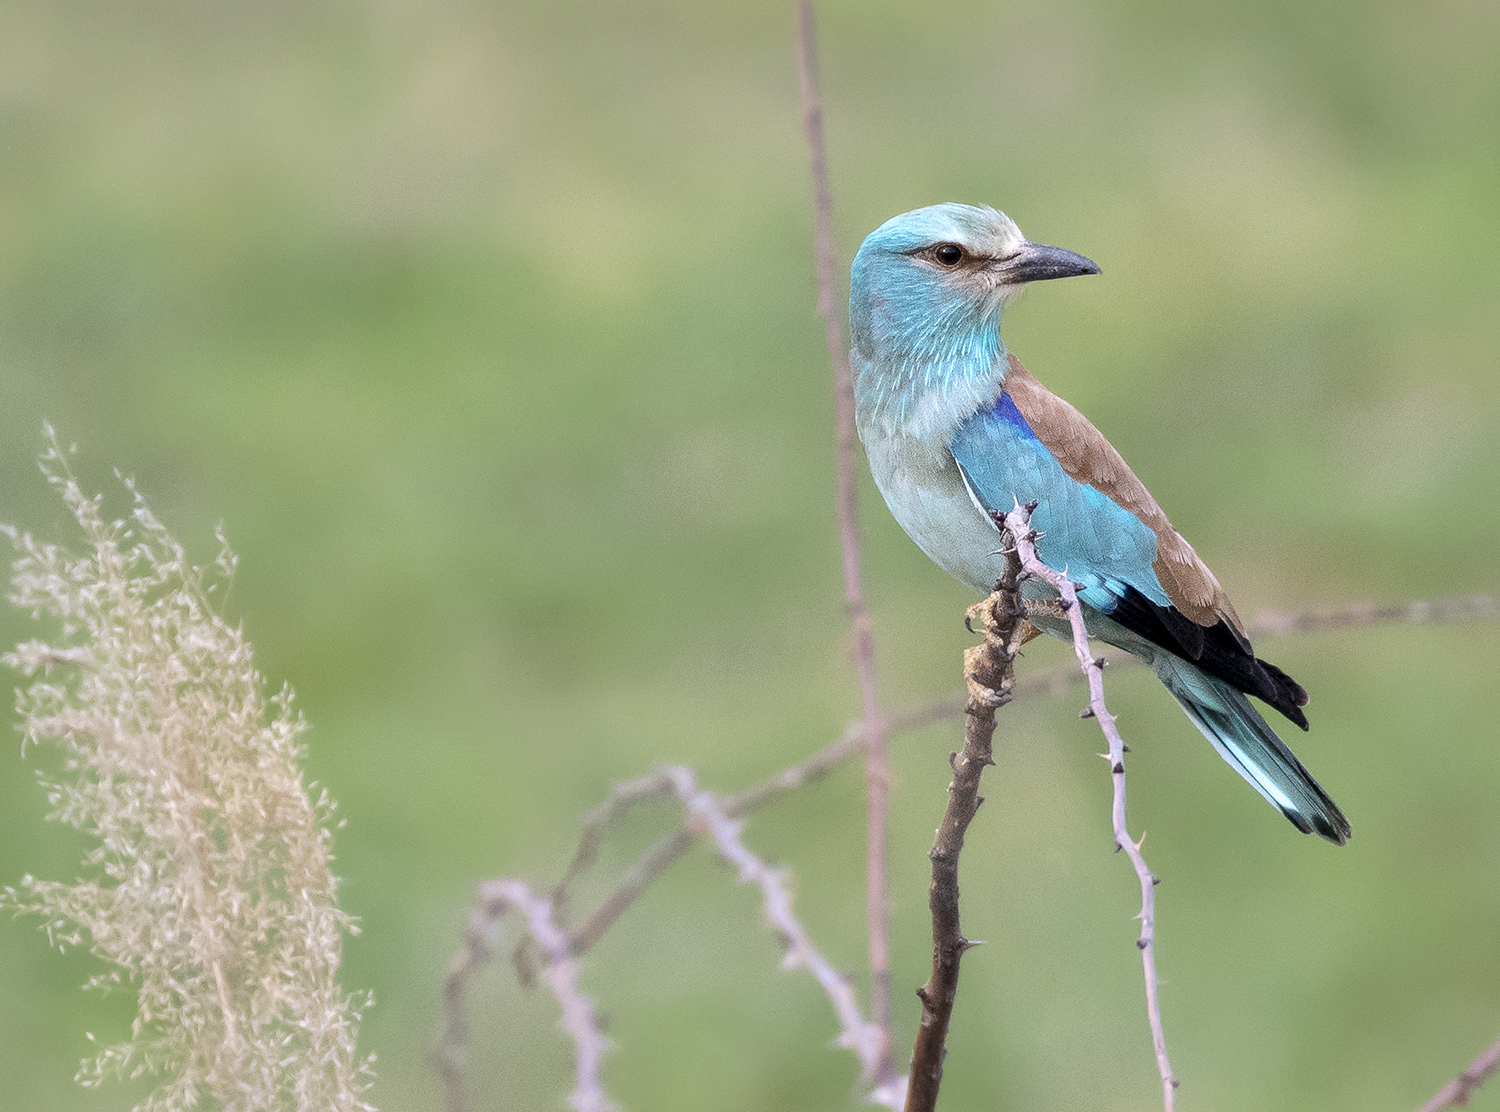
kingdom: Animalia
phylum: Chordata
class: Aves
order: Coraciiformes
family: Coraciidae
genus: Coracias
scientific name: Coracias garrulus
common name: European roller
